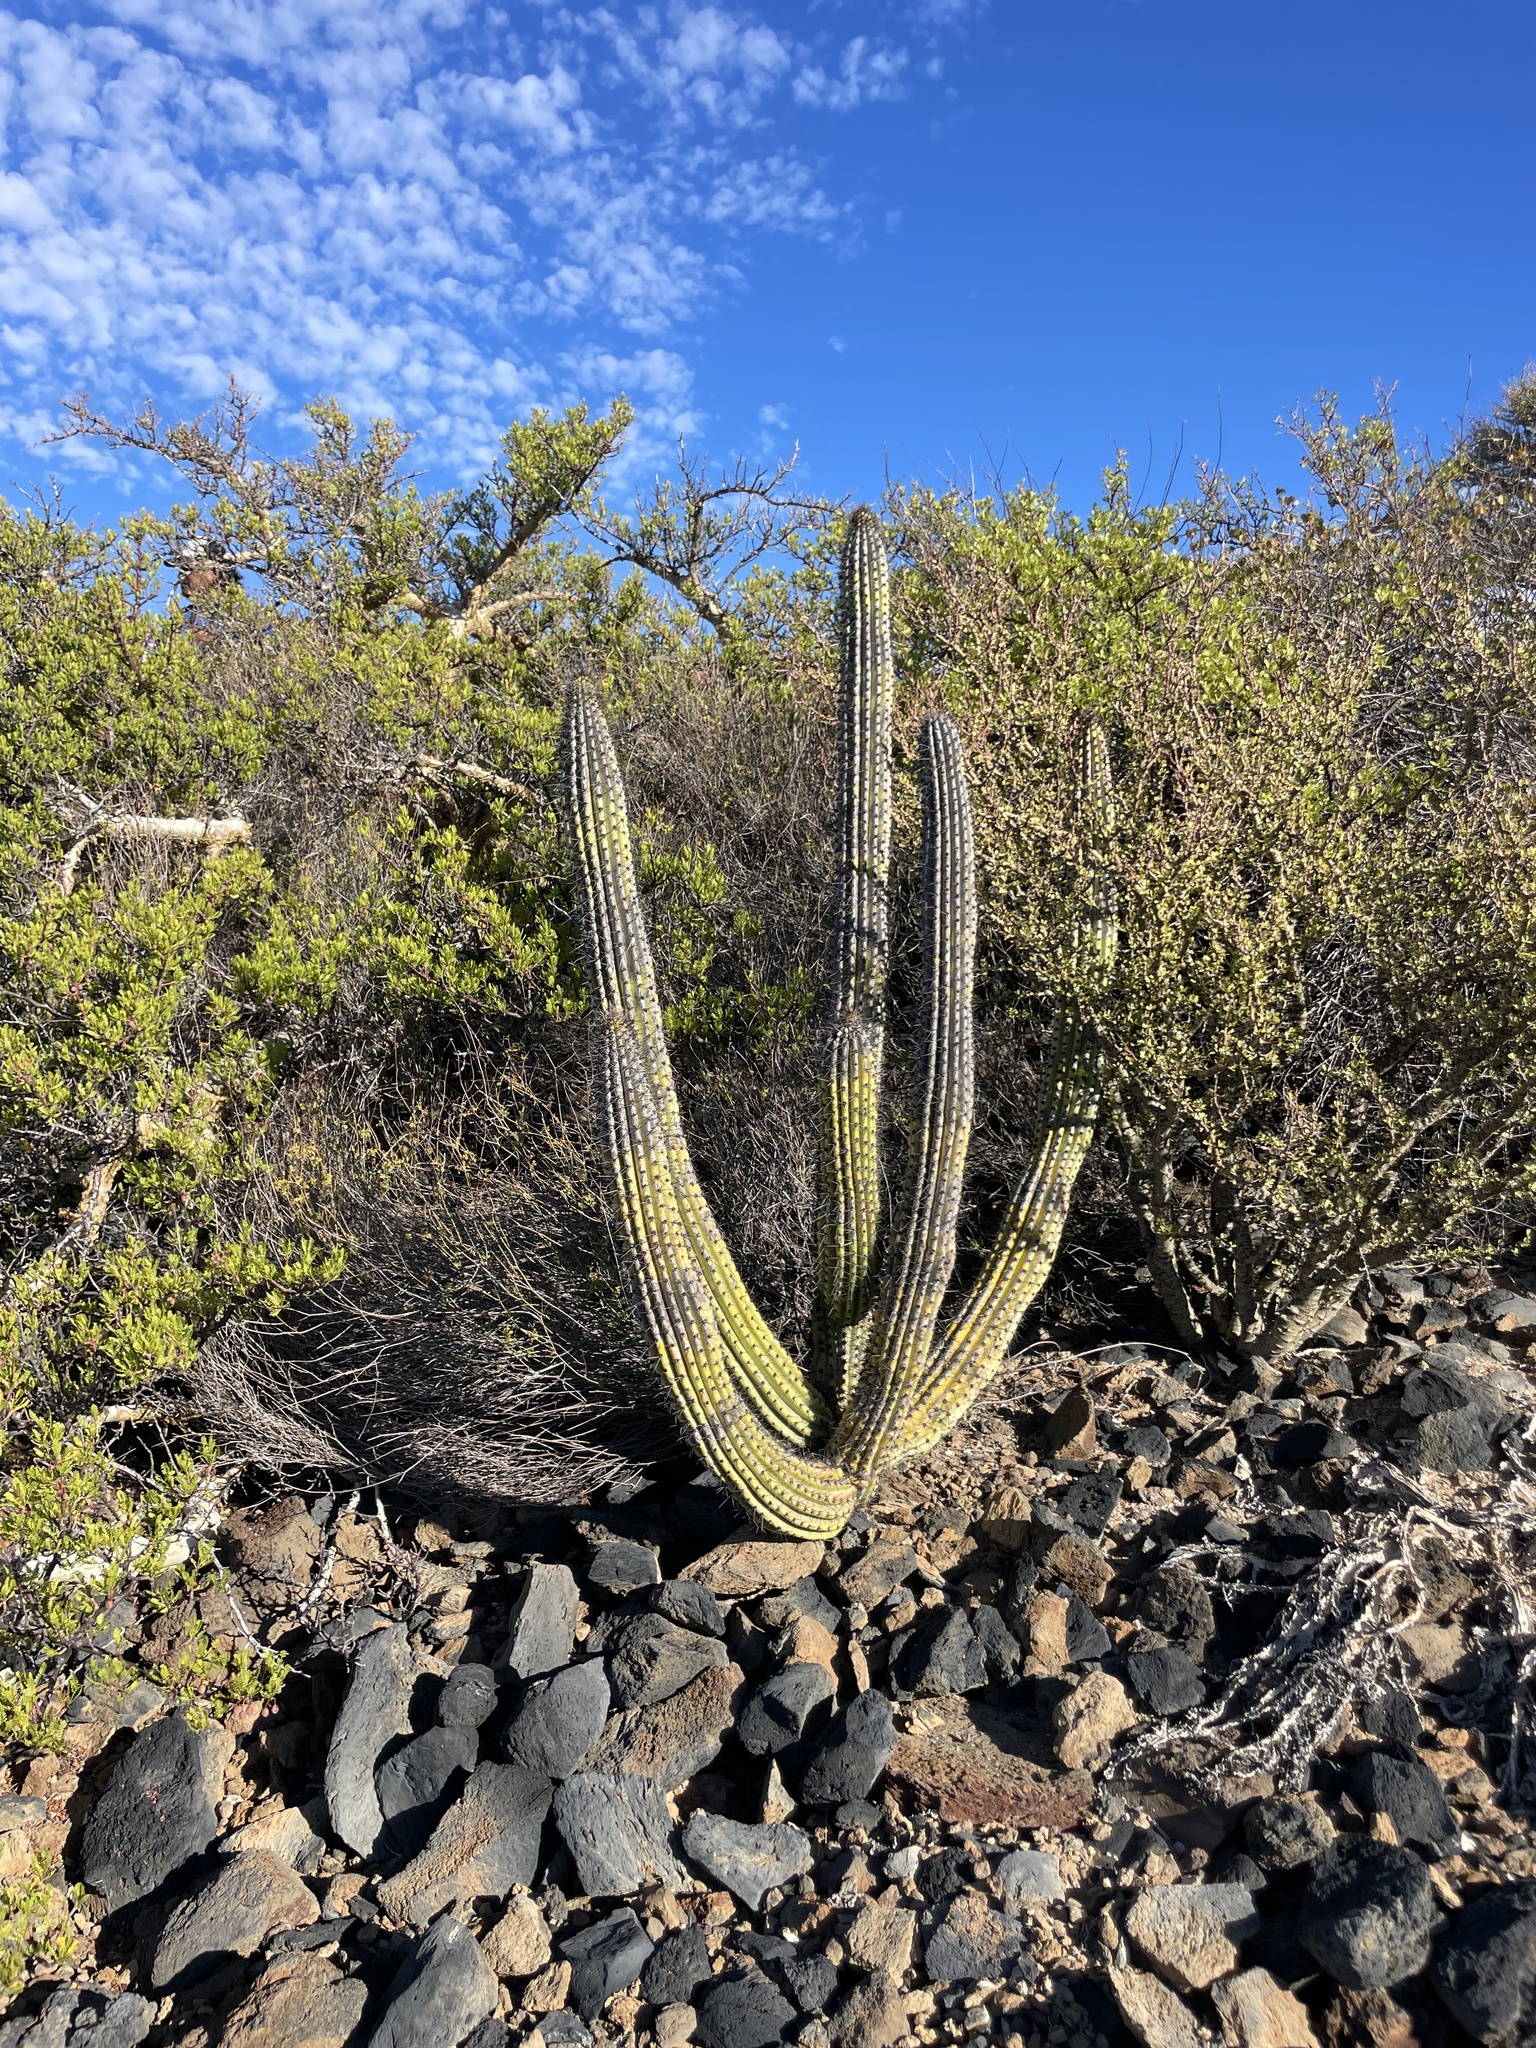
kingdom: Plantae
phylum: Tracheophyta
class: Magnoliopsida
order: Caryophyllales
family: Cactaceae
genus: Stenocereus
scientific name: Stenocereus thurberi
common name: Organ pipe cactus
